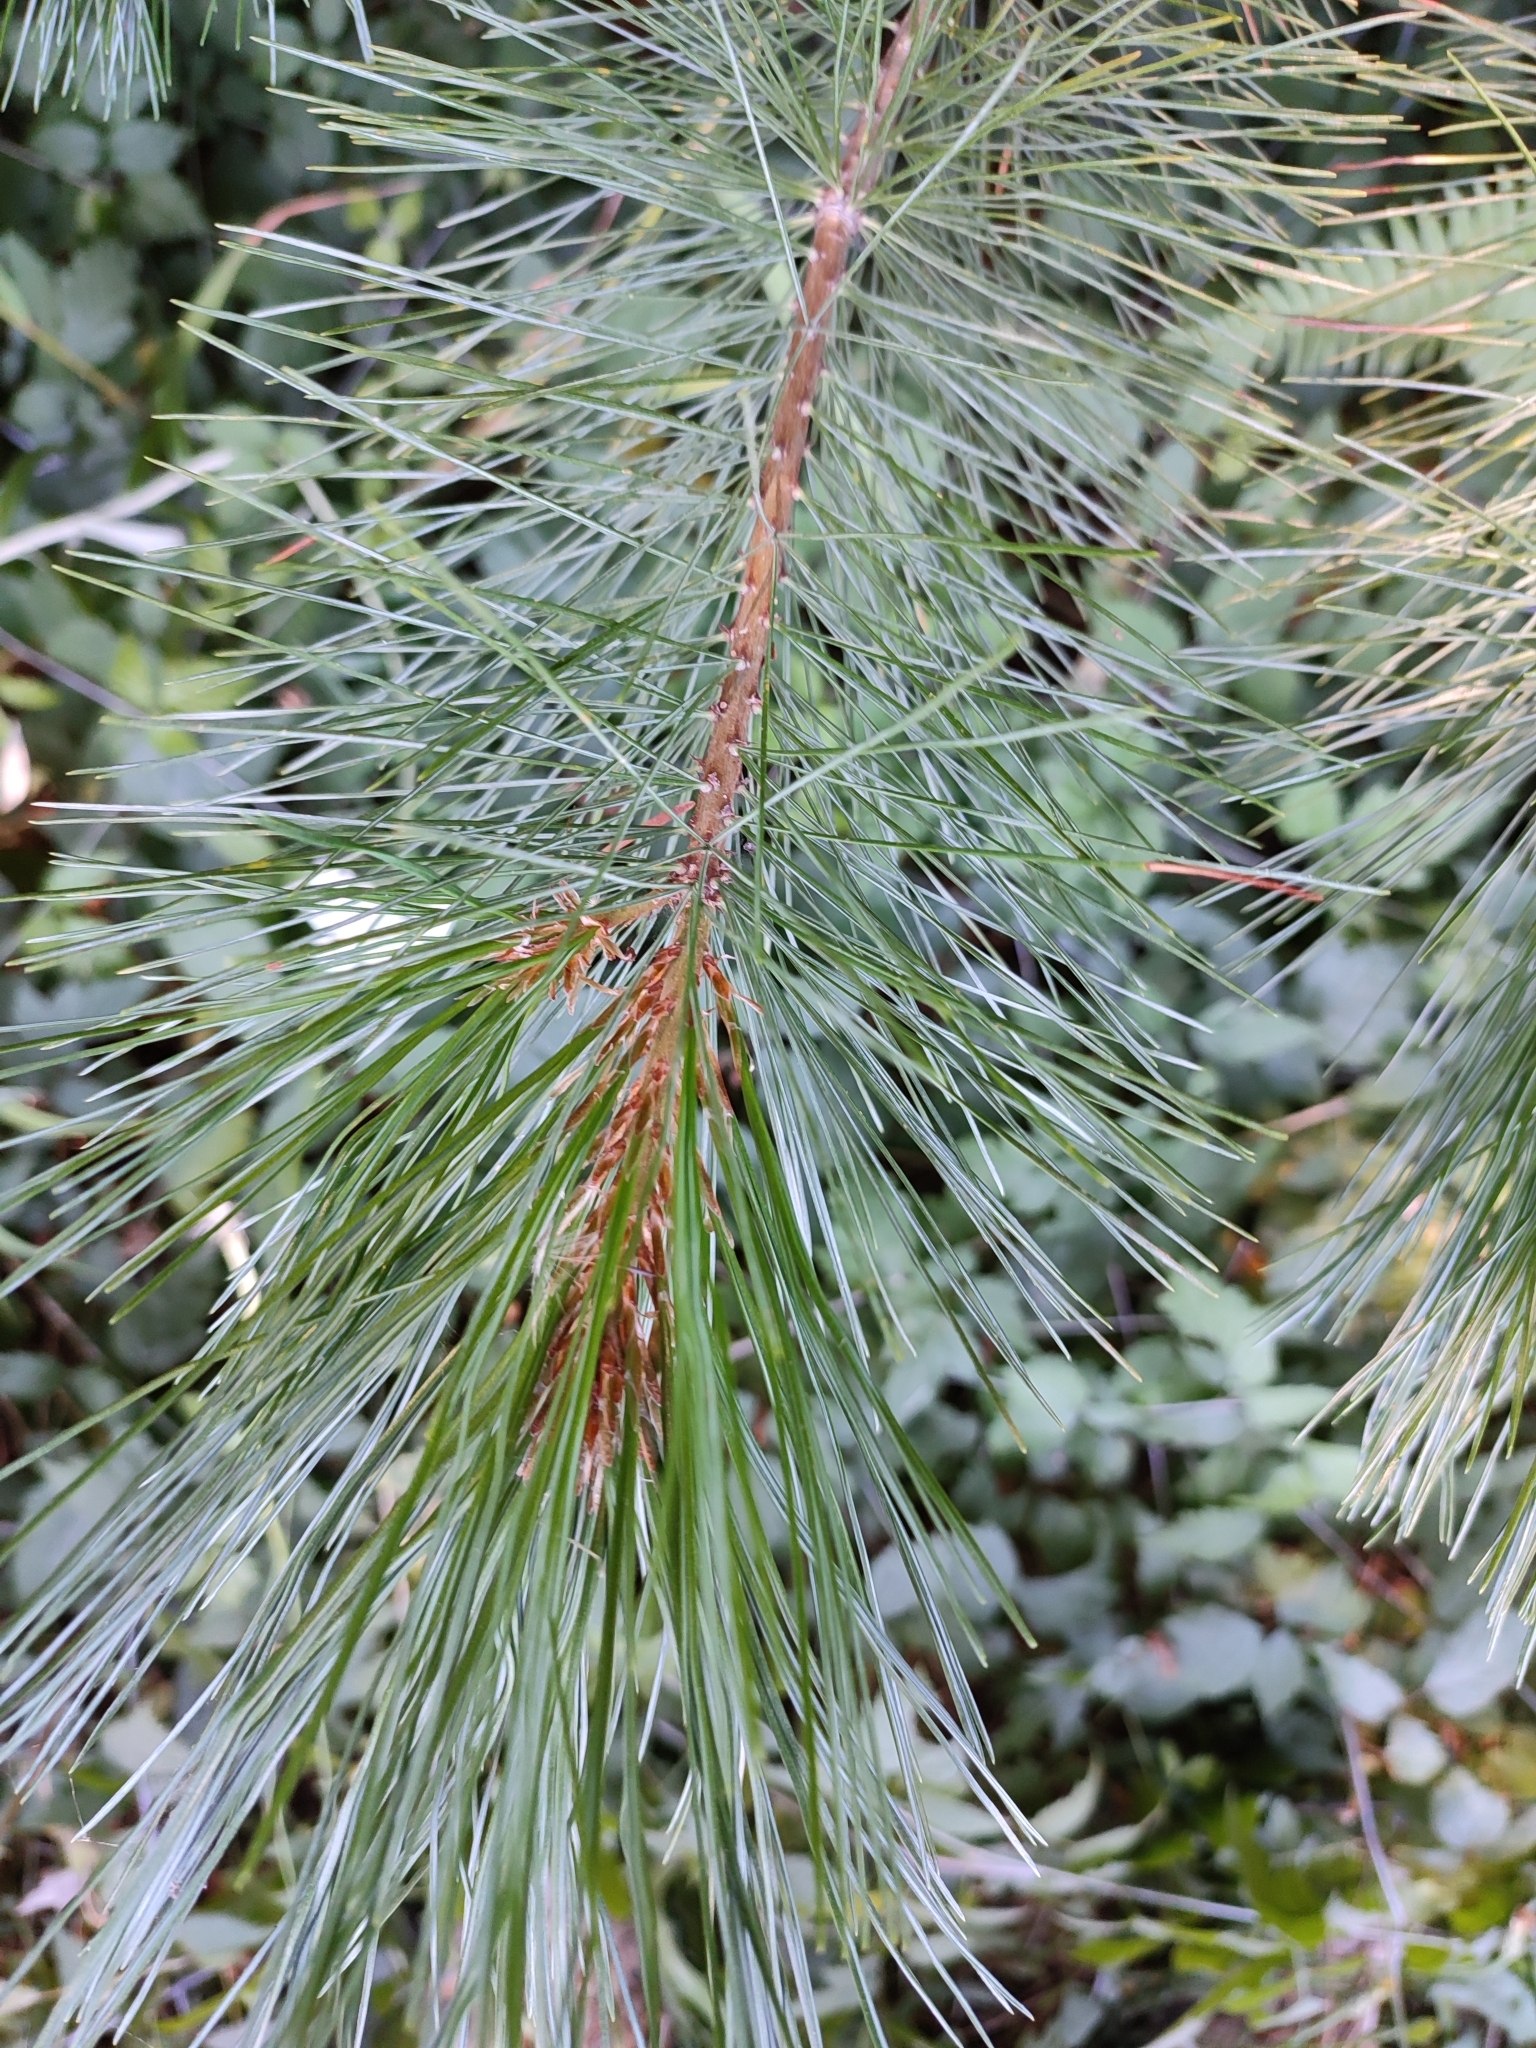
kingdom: Plantae
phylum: Tracheophyta
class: Pinopsida
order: Pinales
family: Pinaceae
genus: Pinus
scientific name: Pinus monticola
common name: Western white pine
